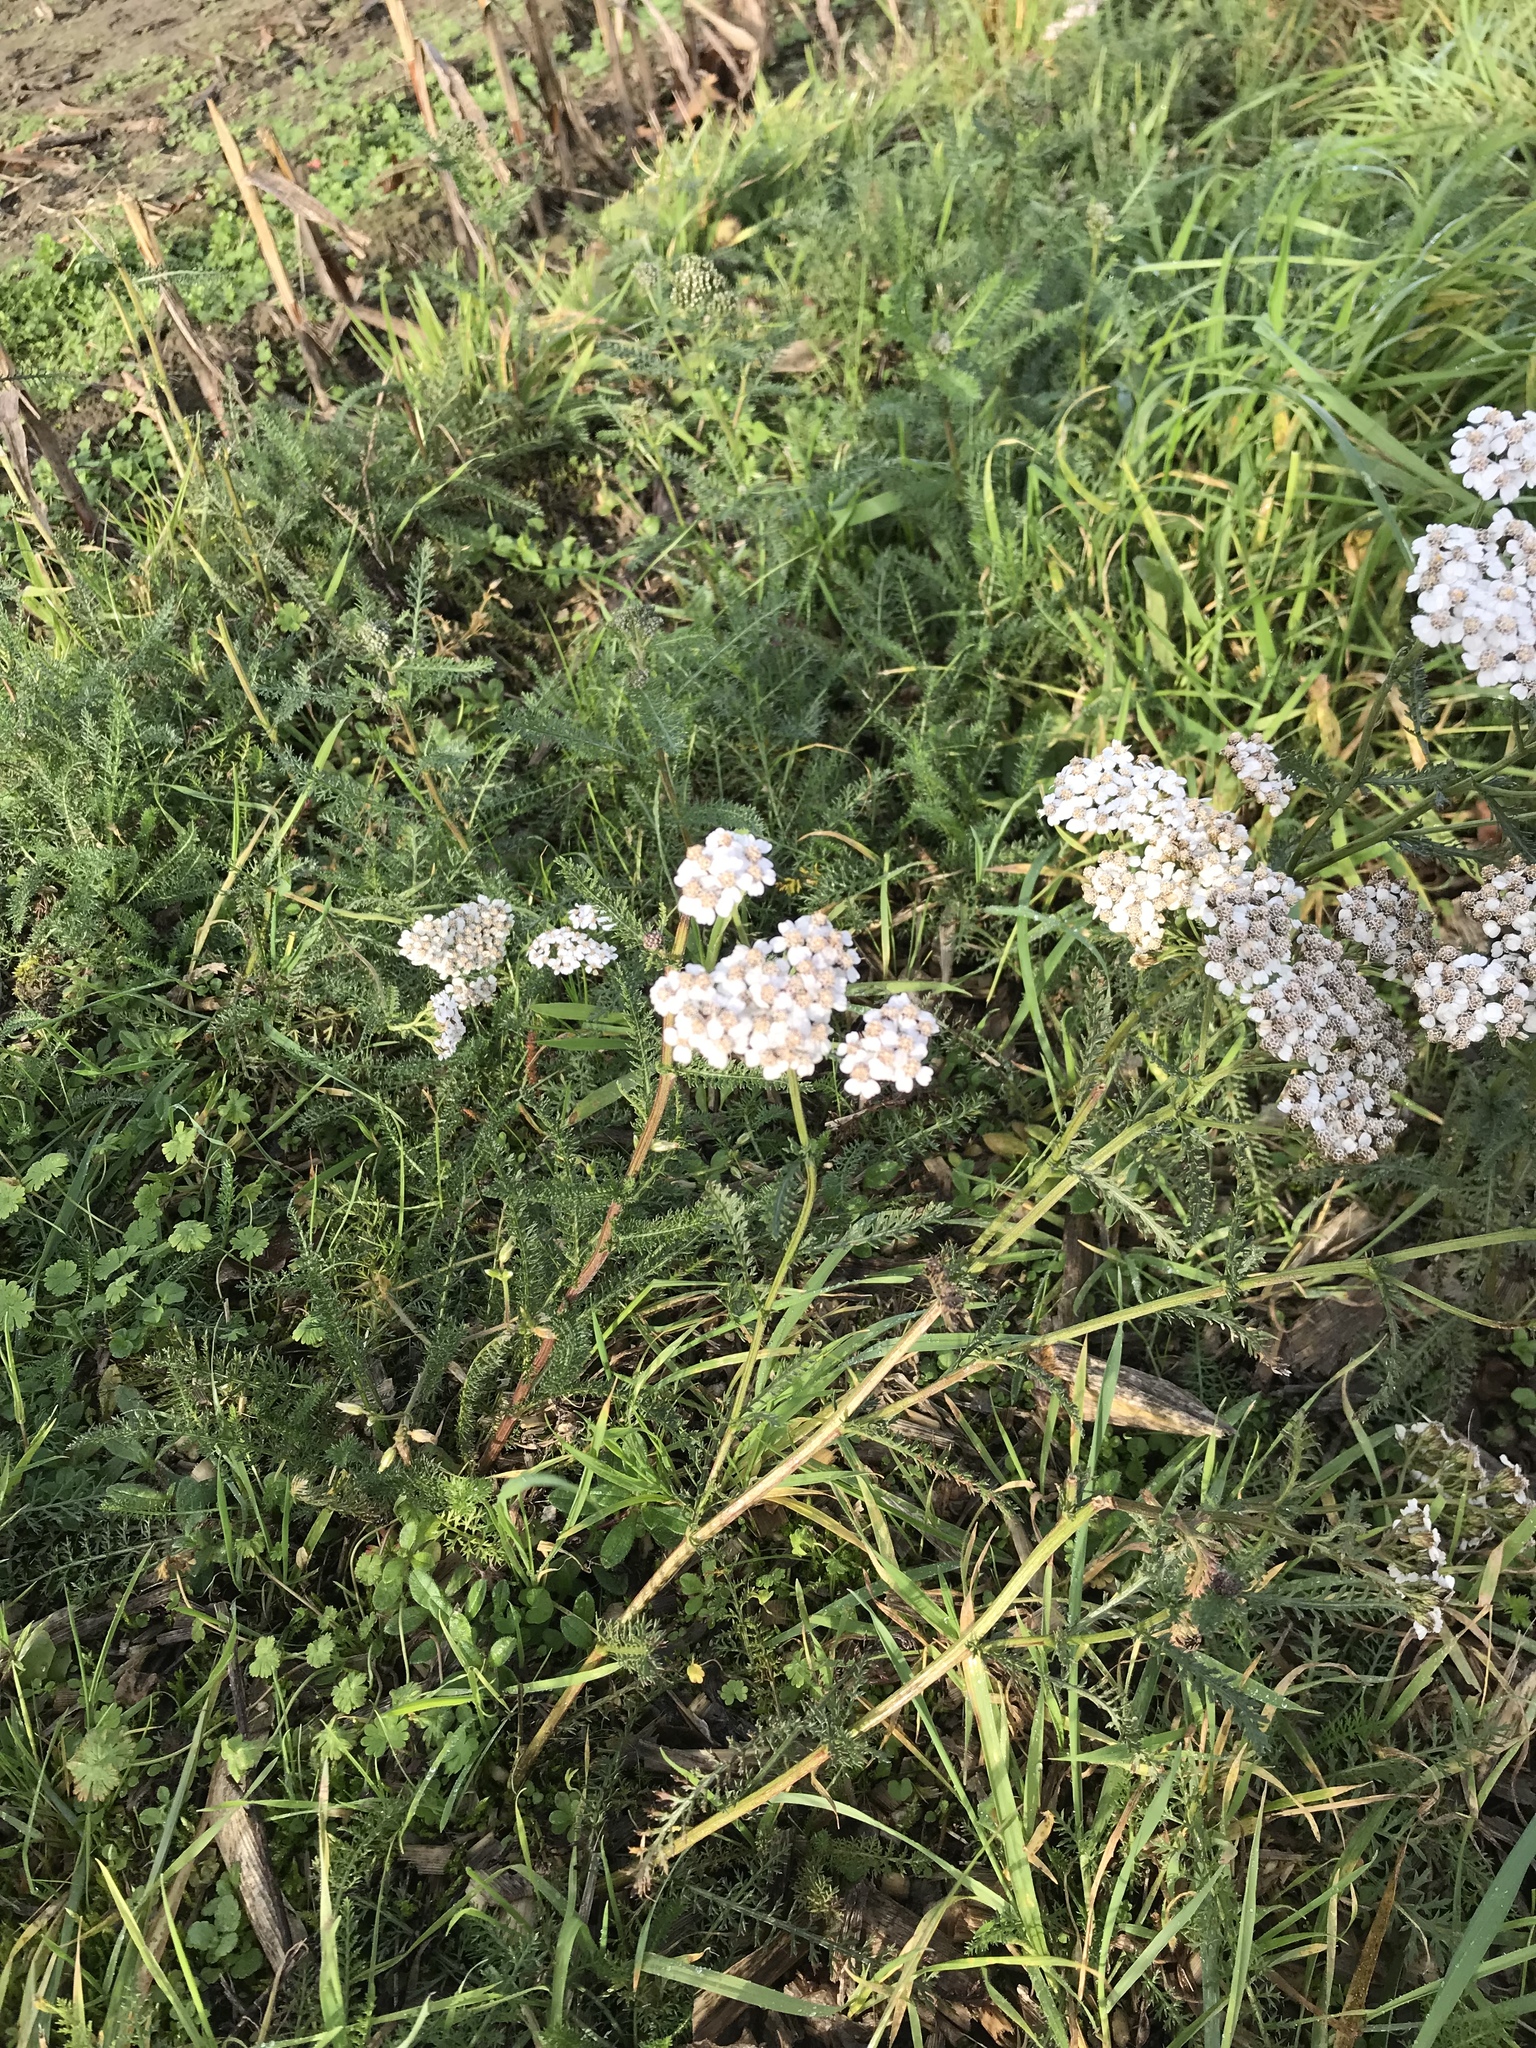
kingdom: Plantae
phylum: Tracheophyta
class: Magnoliopsida
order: Asterales
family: Asteraceae
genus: Achillea
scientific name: Achillea millefolium
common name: Yarrow
